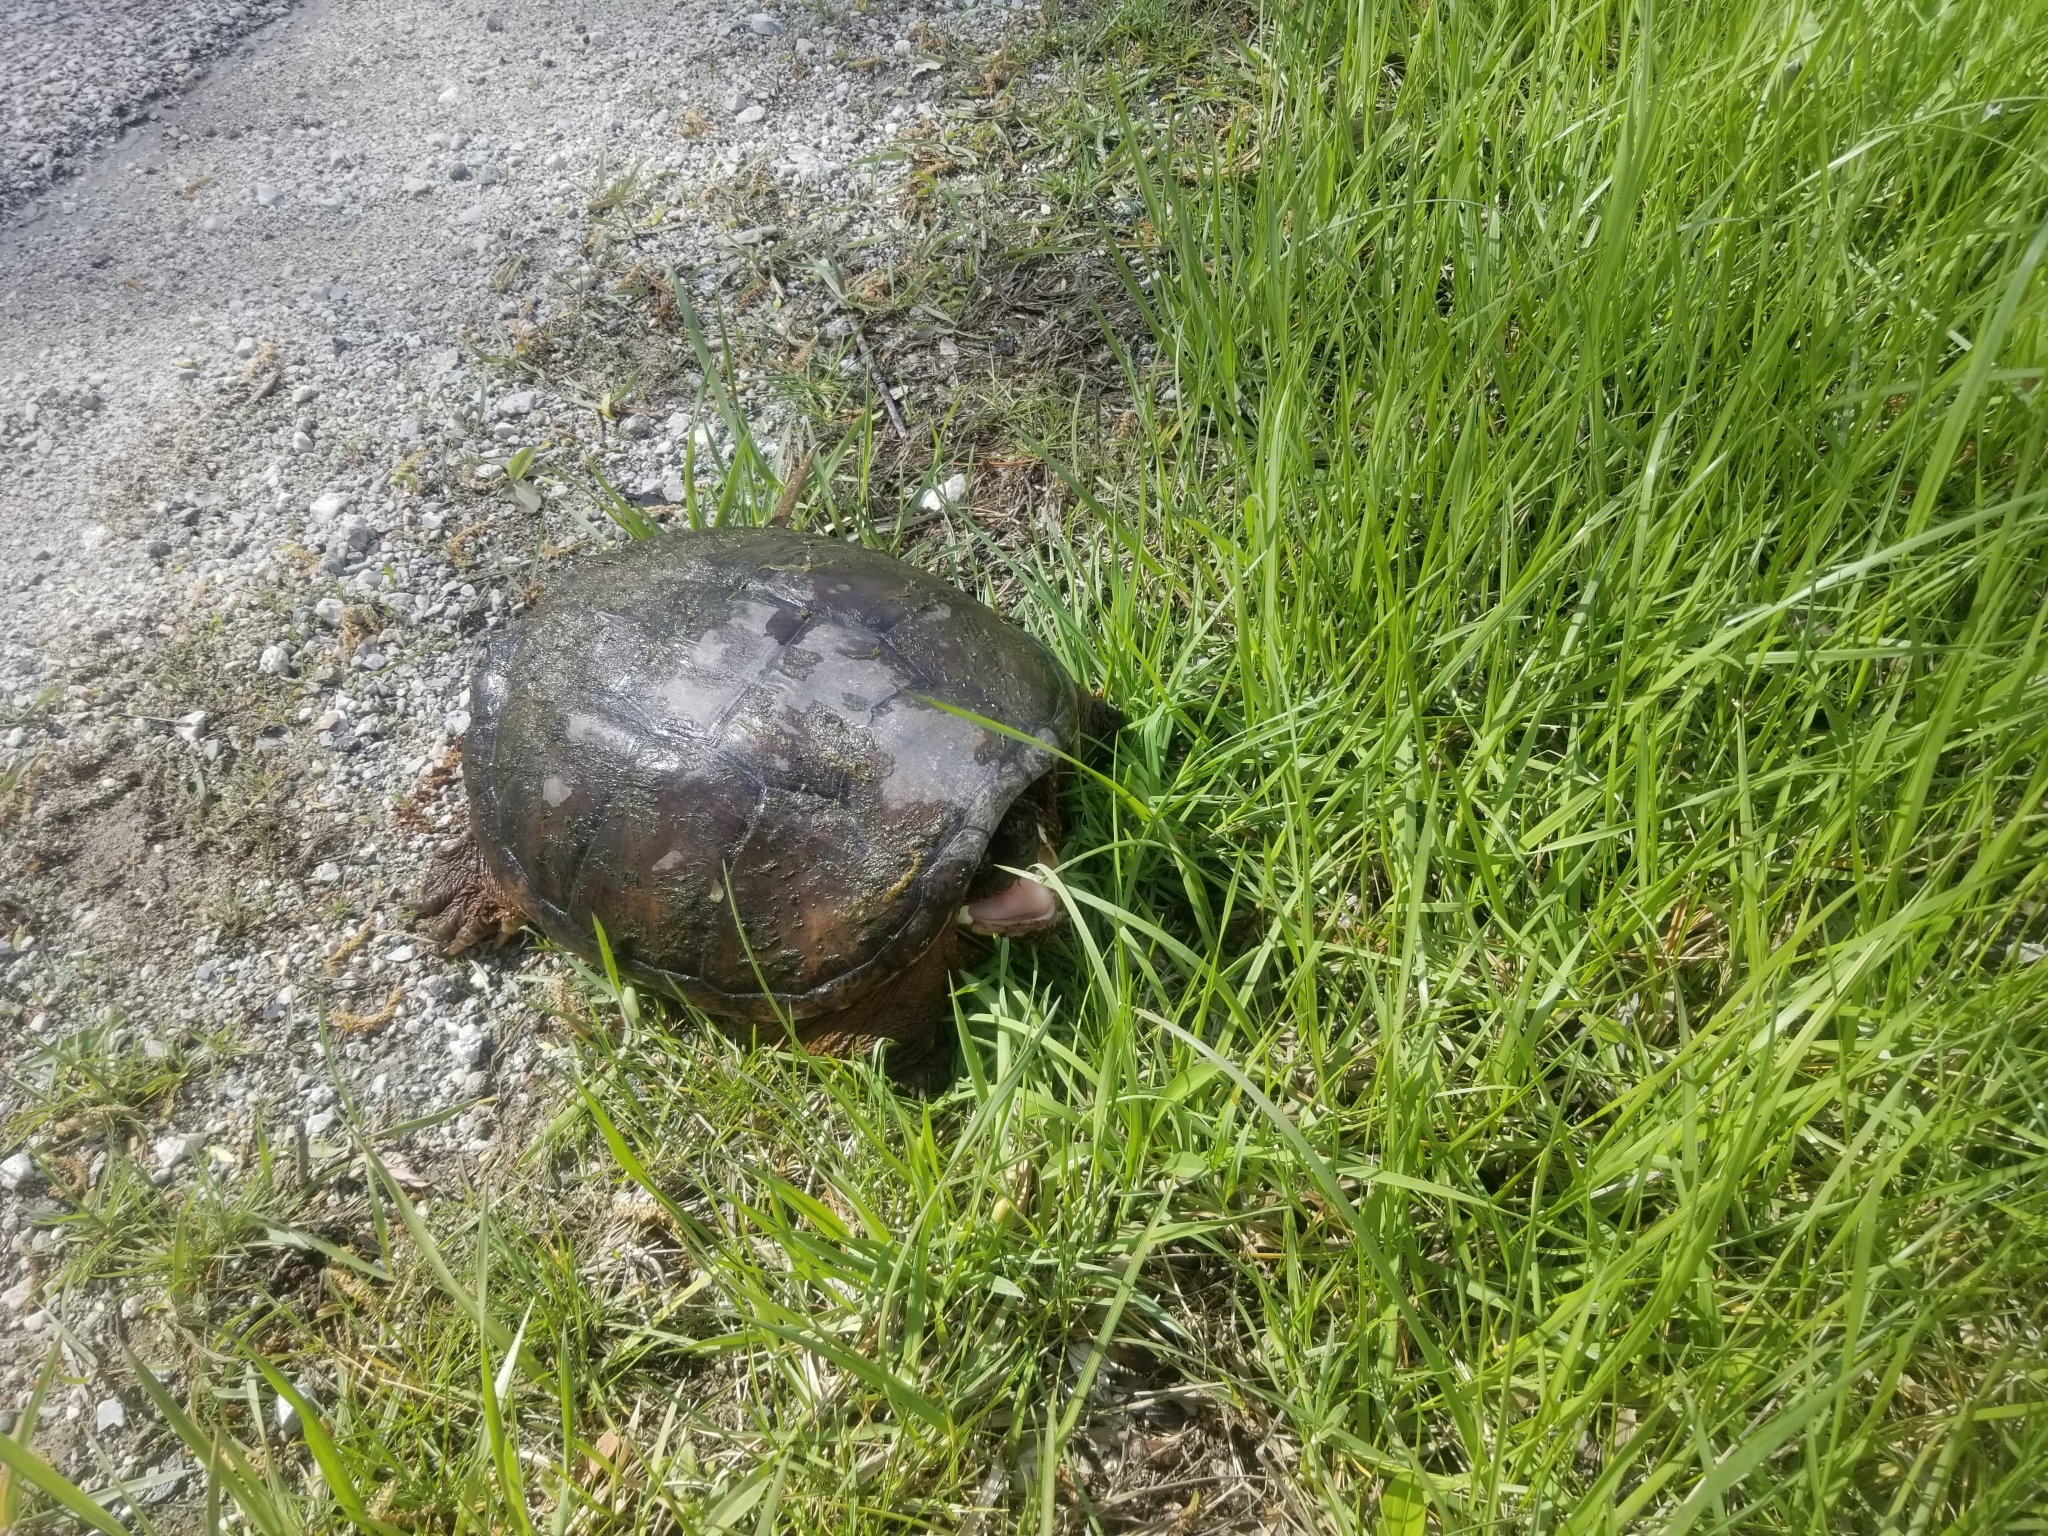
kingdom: Animalia
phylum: Chordata
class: Testudines
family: Chelydridae
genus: Chelydra
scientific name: Chelydra serpentina
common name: Common snapping turtle
